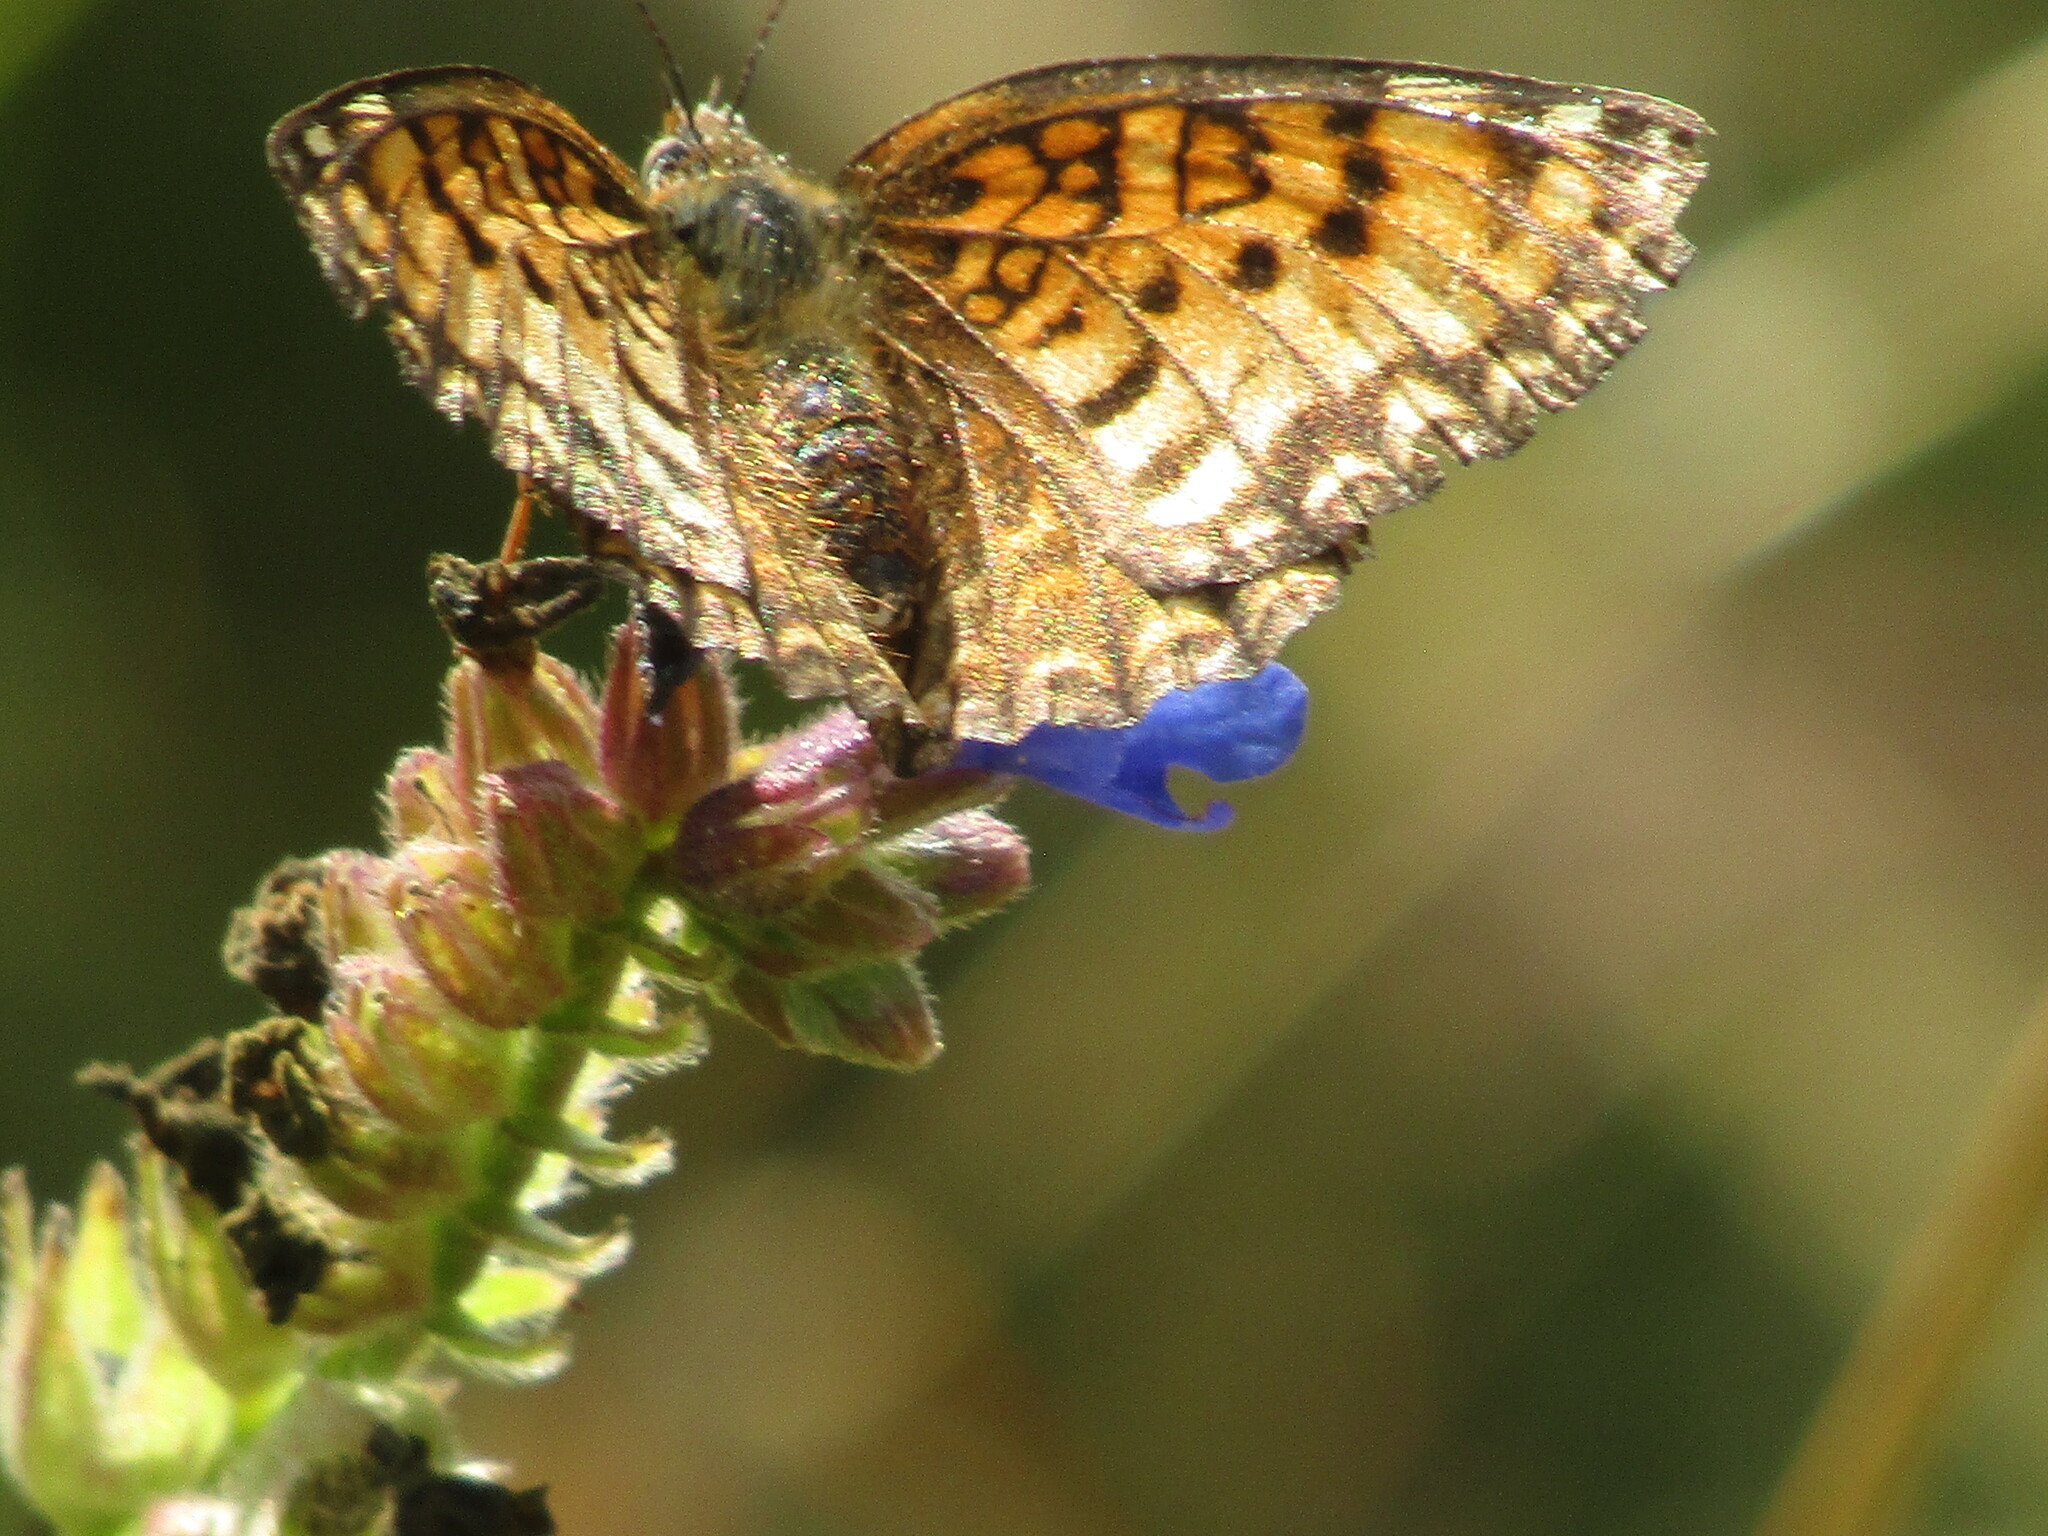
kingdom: Animalia
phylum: Arthropoda
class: Insecta
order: Lepidoptera
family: Nymphalidae
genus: Melitaea
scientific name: Melitaea
